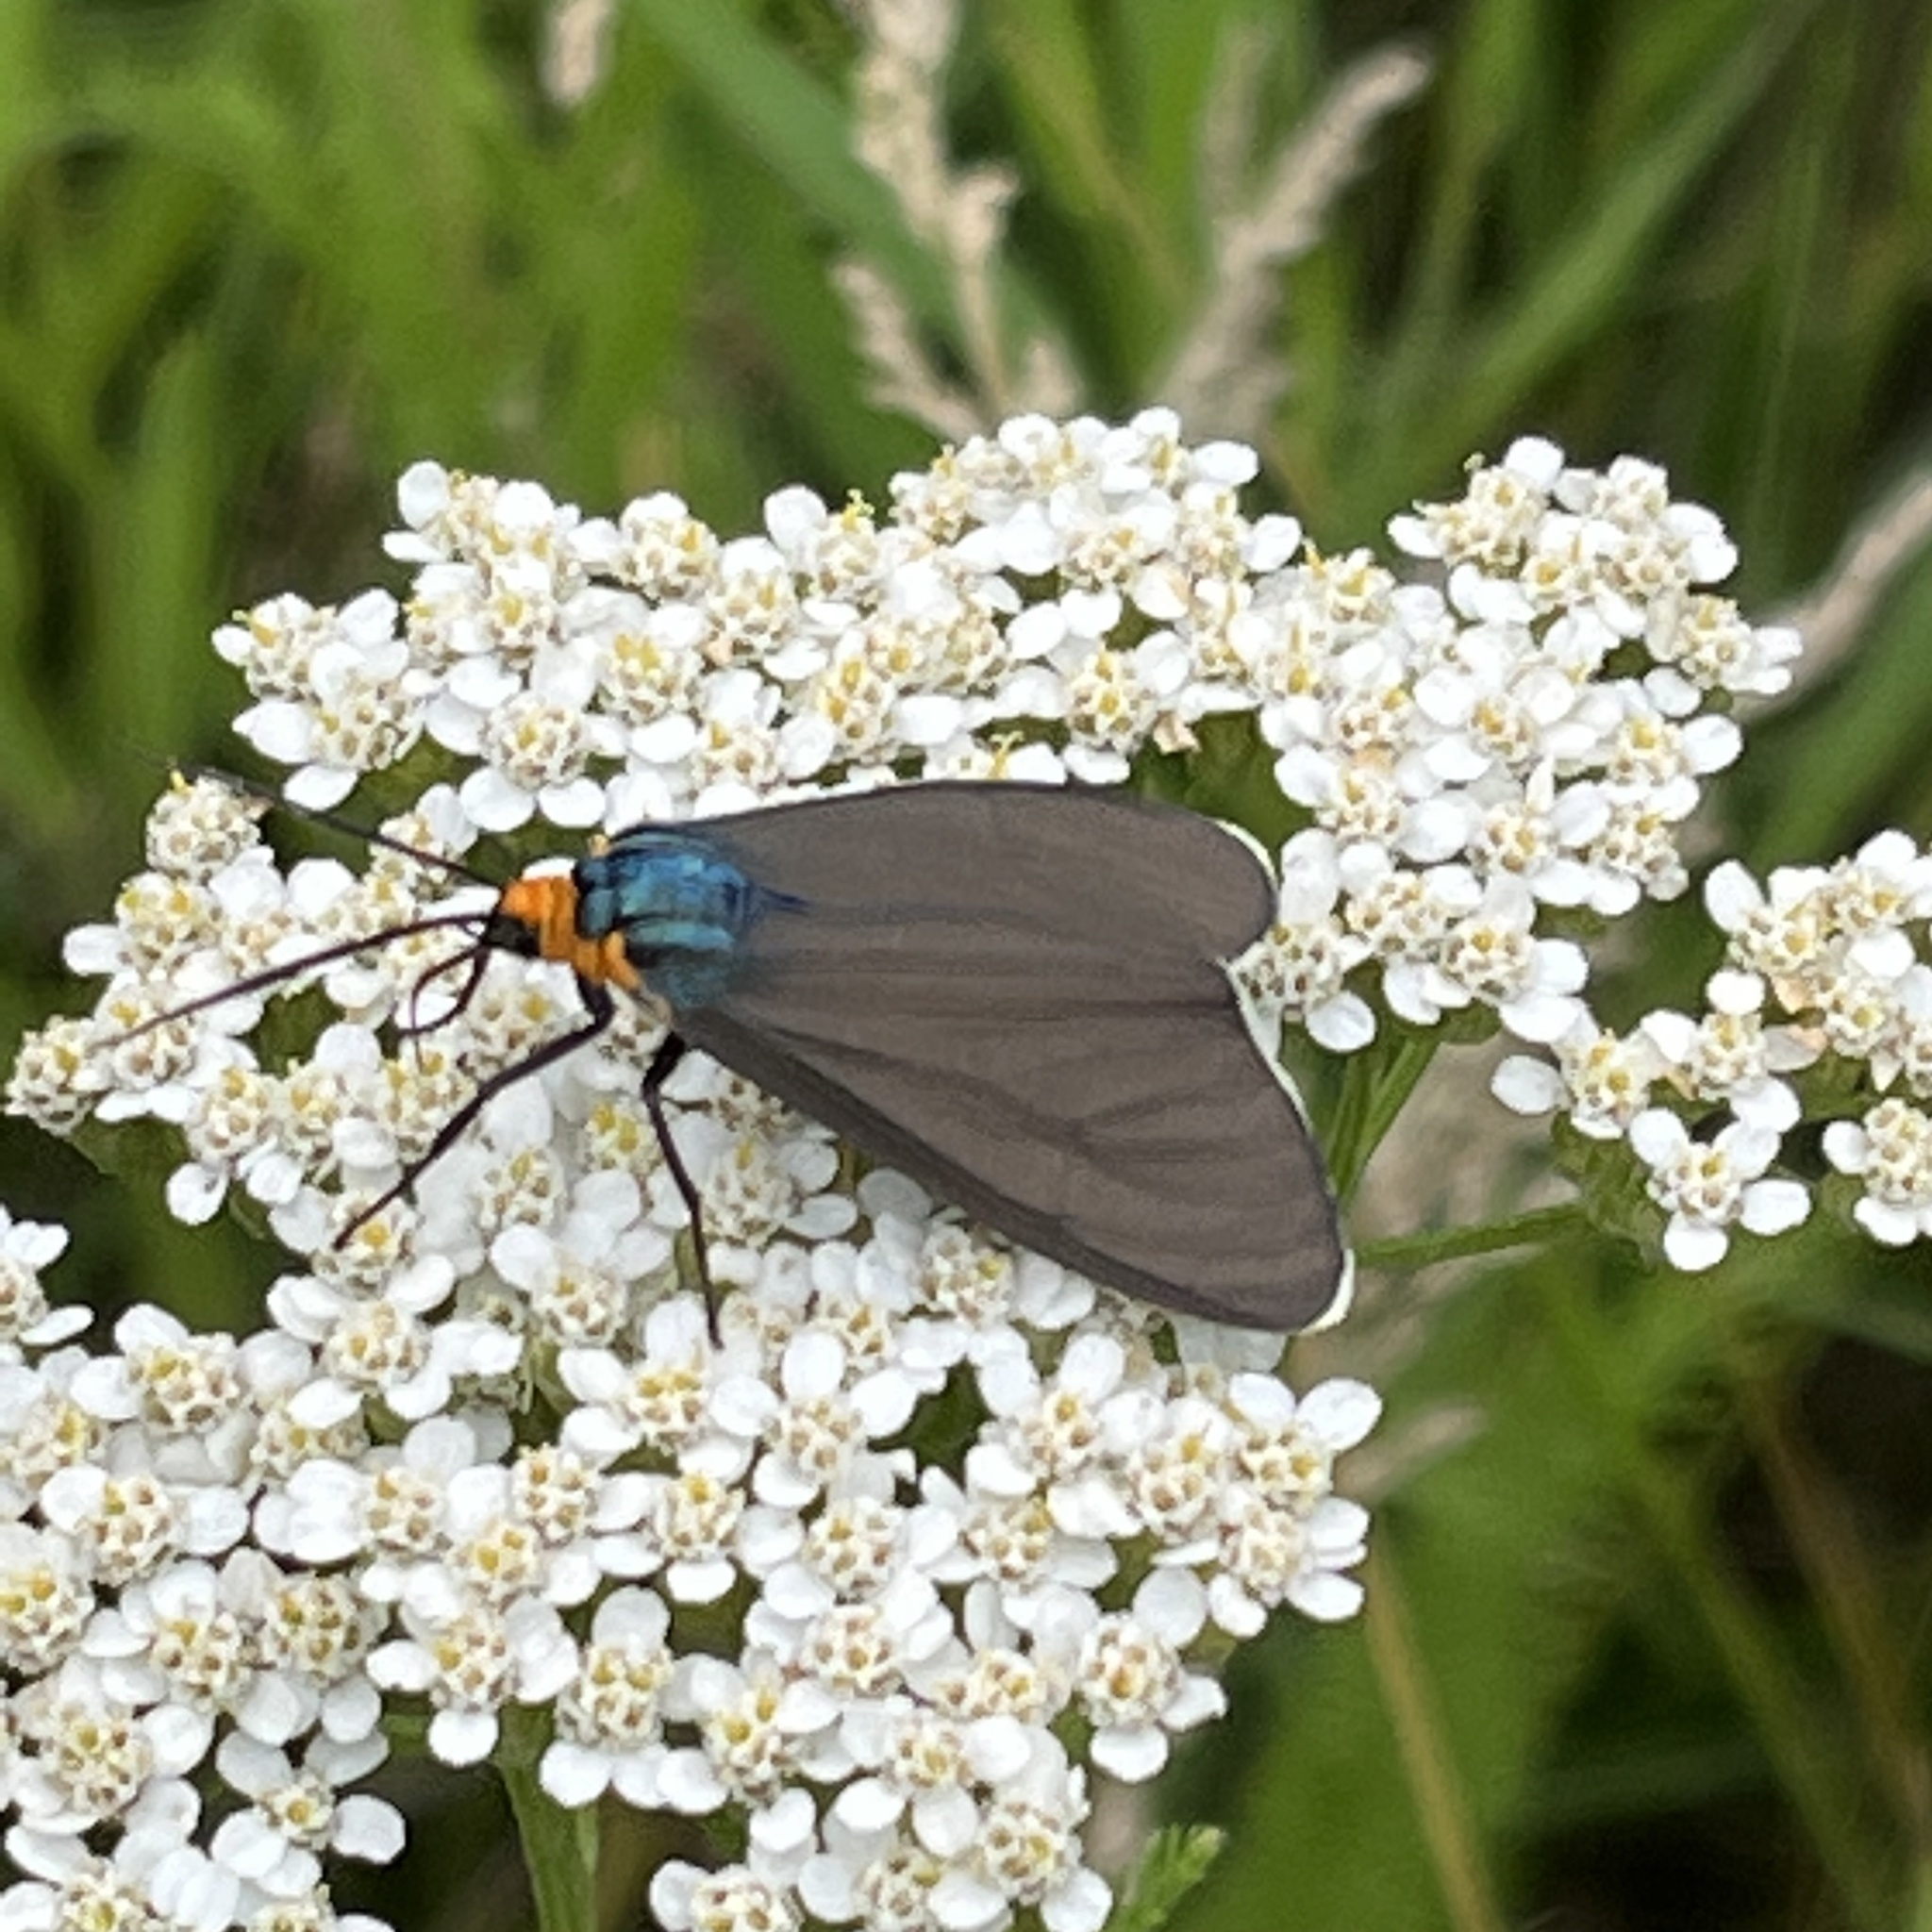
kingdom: Animalia
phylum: Arthropoda
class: Insecta
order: Lepidoptera
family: Erebidae
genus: Ctenucha
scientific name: Ctenucha virginica
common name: Virginia ctenucha moth
